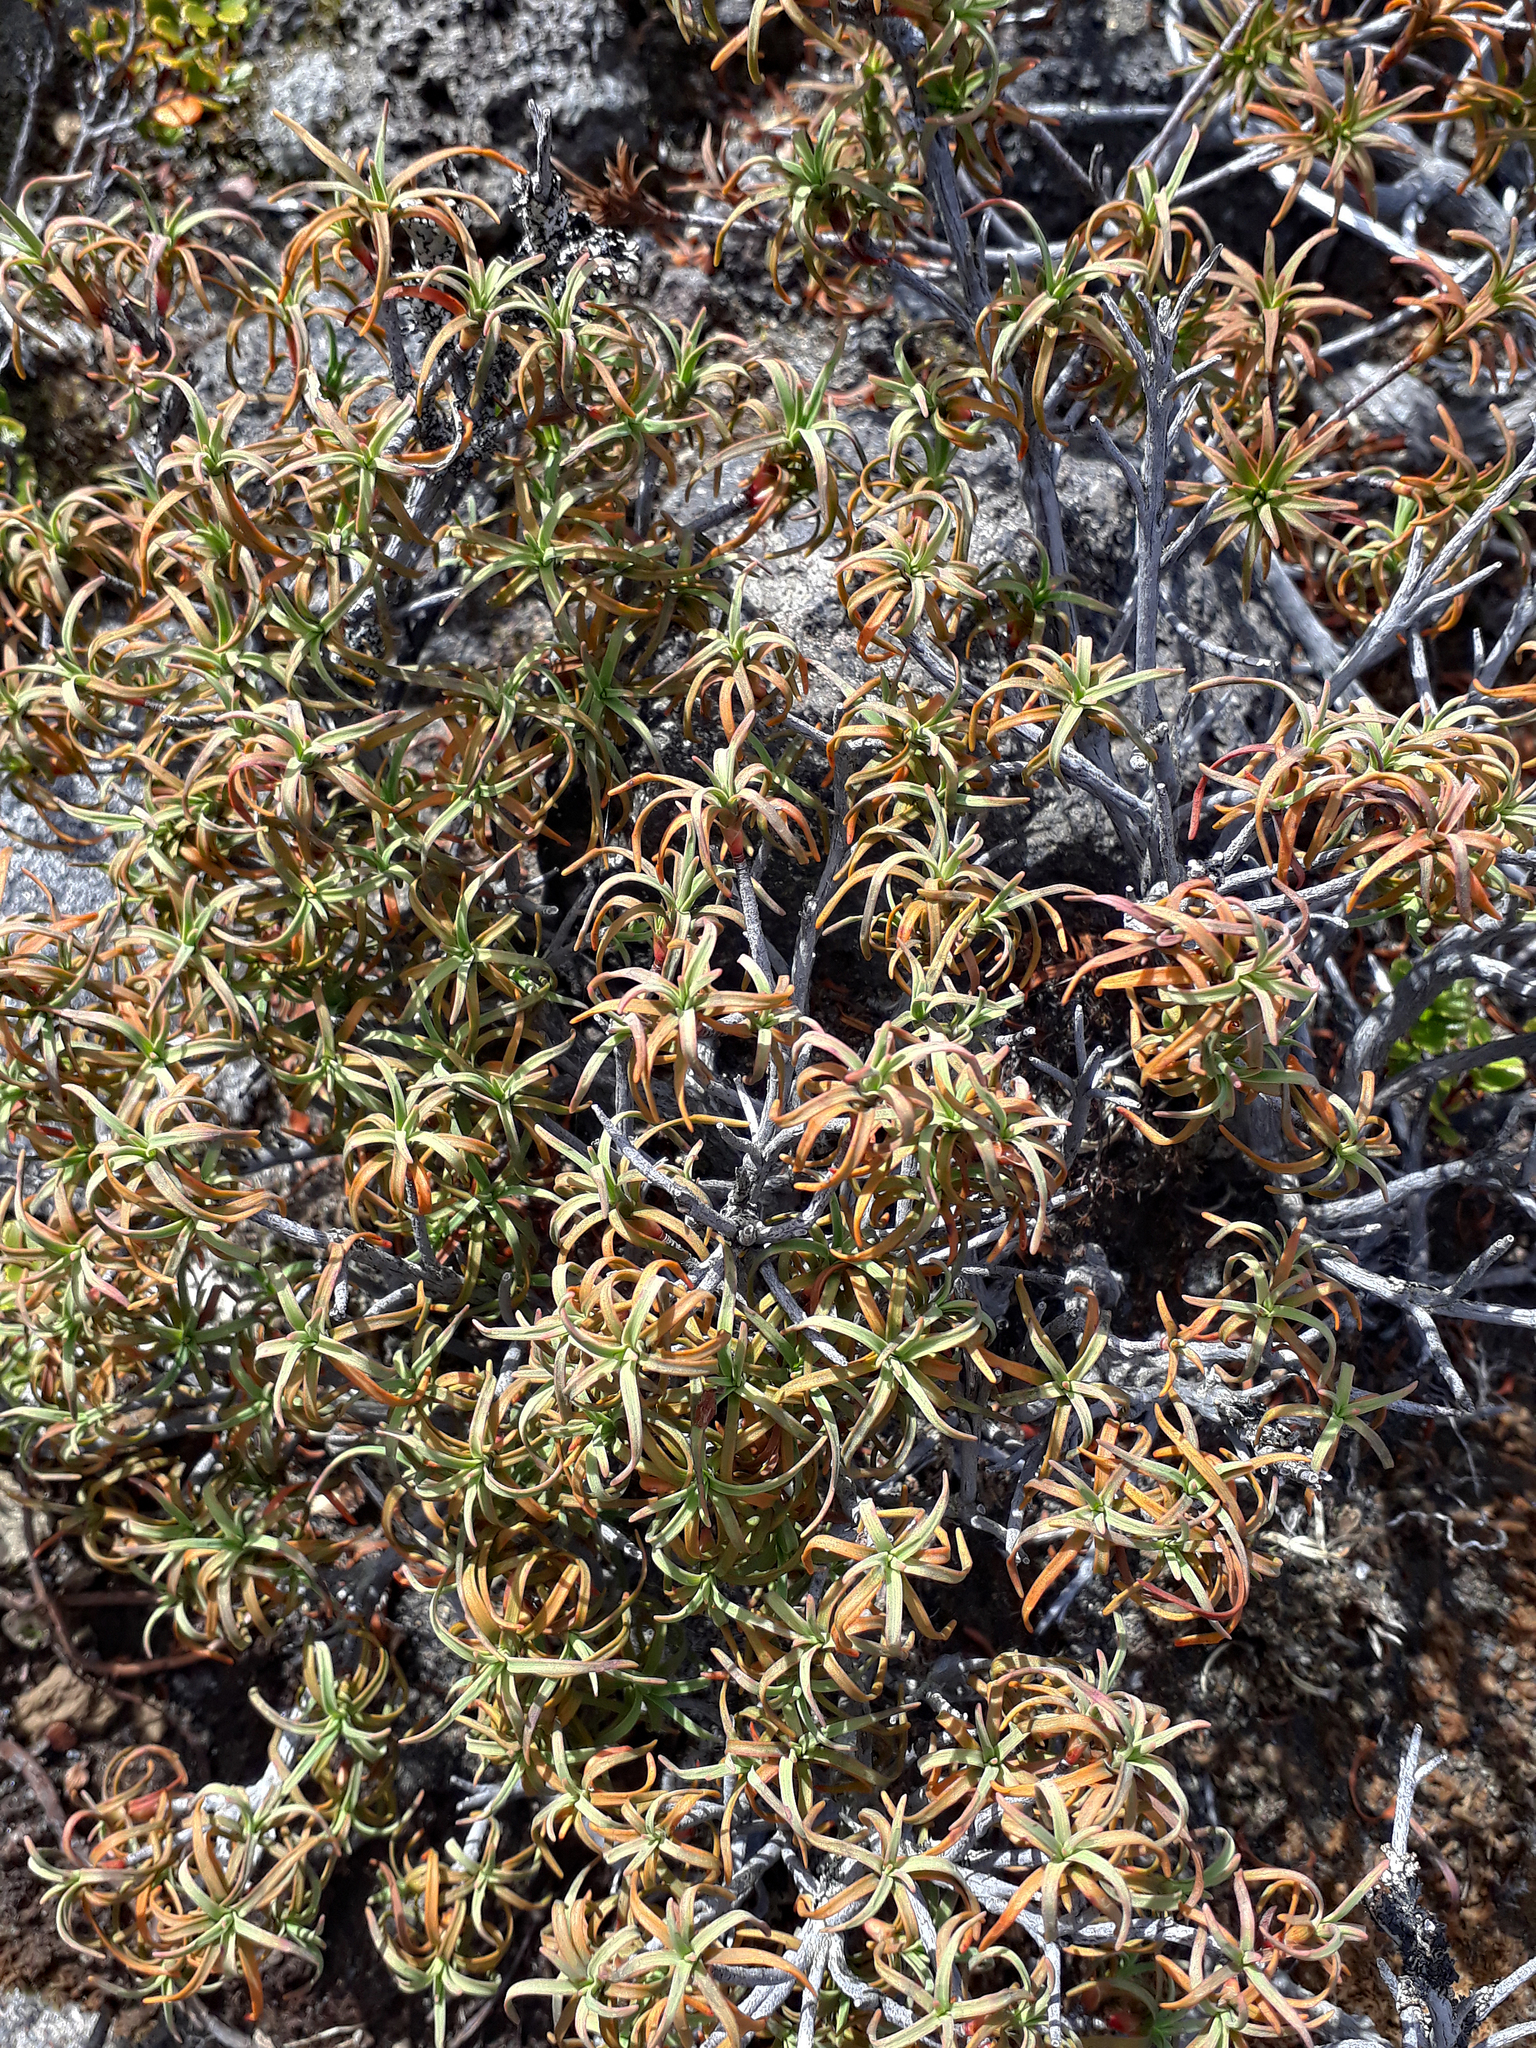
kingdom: Plantae
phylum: Tracheophyta
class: Magnoliopsida
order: Ericales
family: Ericaceae
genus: Dracophyllum
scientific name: Dracophyllum recurvum
